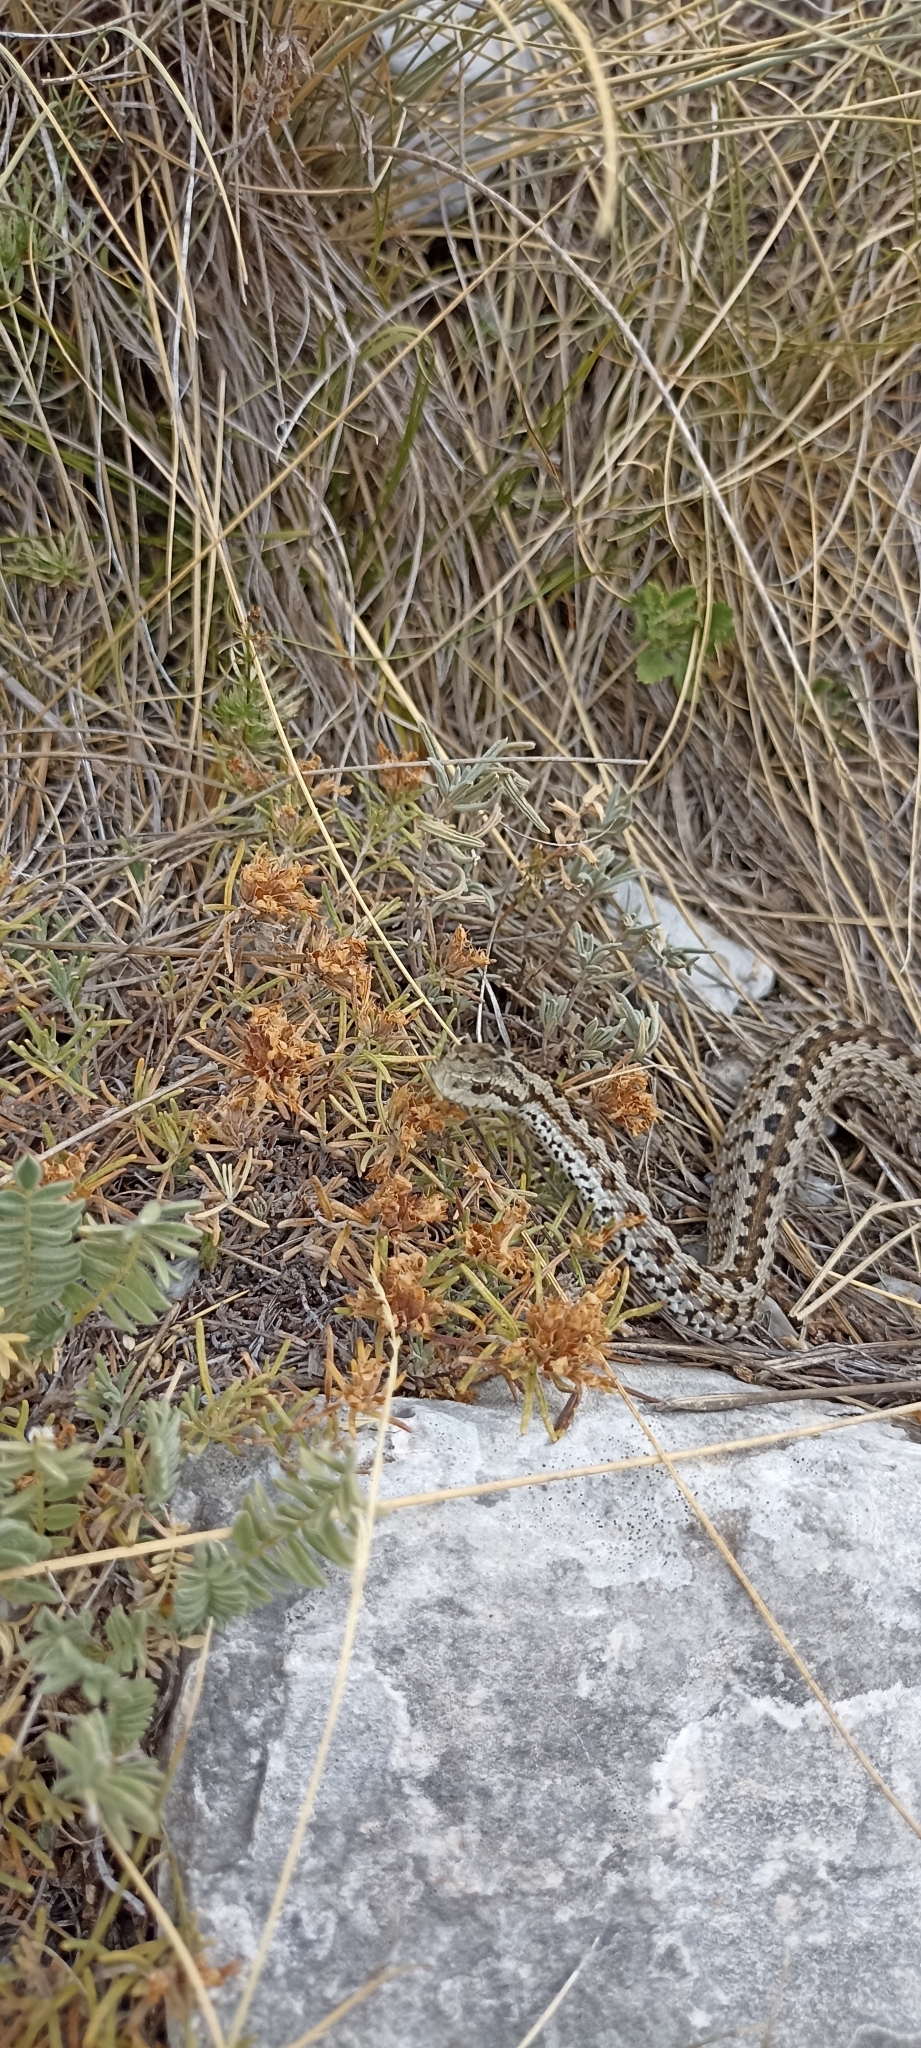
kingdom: Animalia
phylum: Chordata
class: Squamata
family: Viperidae
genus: Vipera
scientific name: Vipera ursinii
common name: Meadow viper
